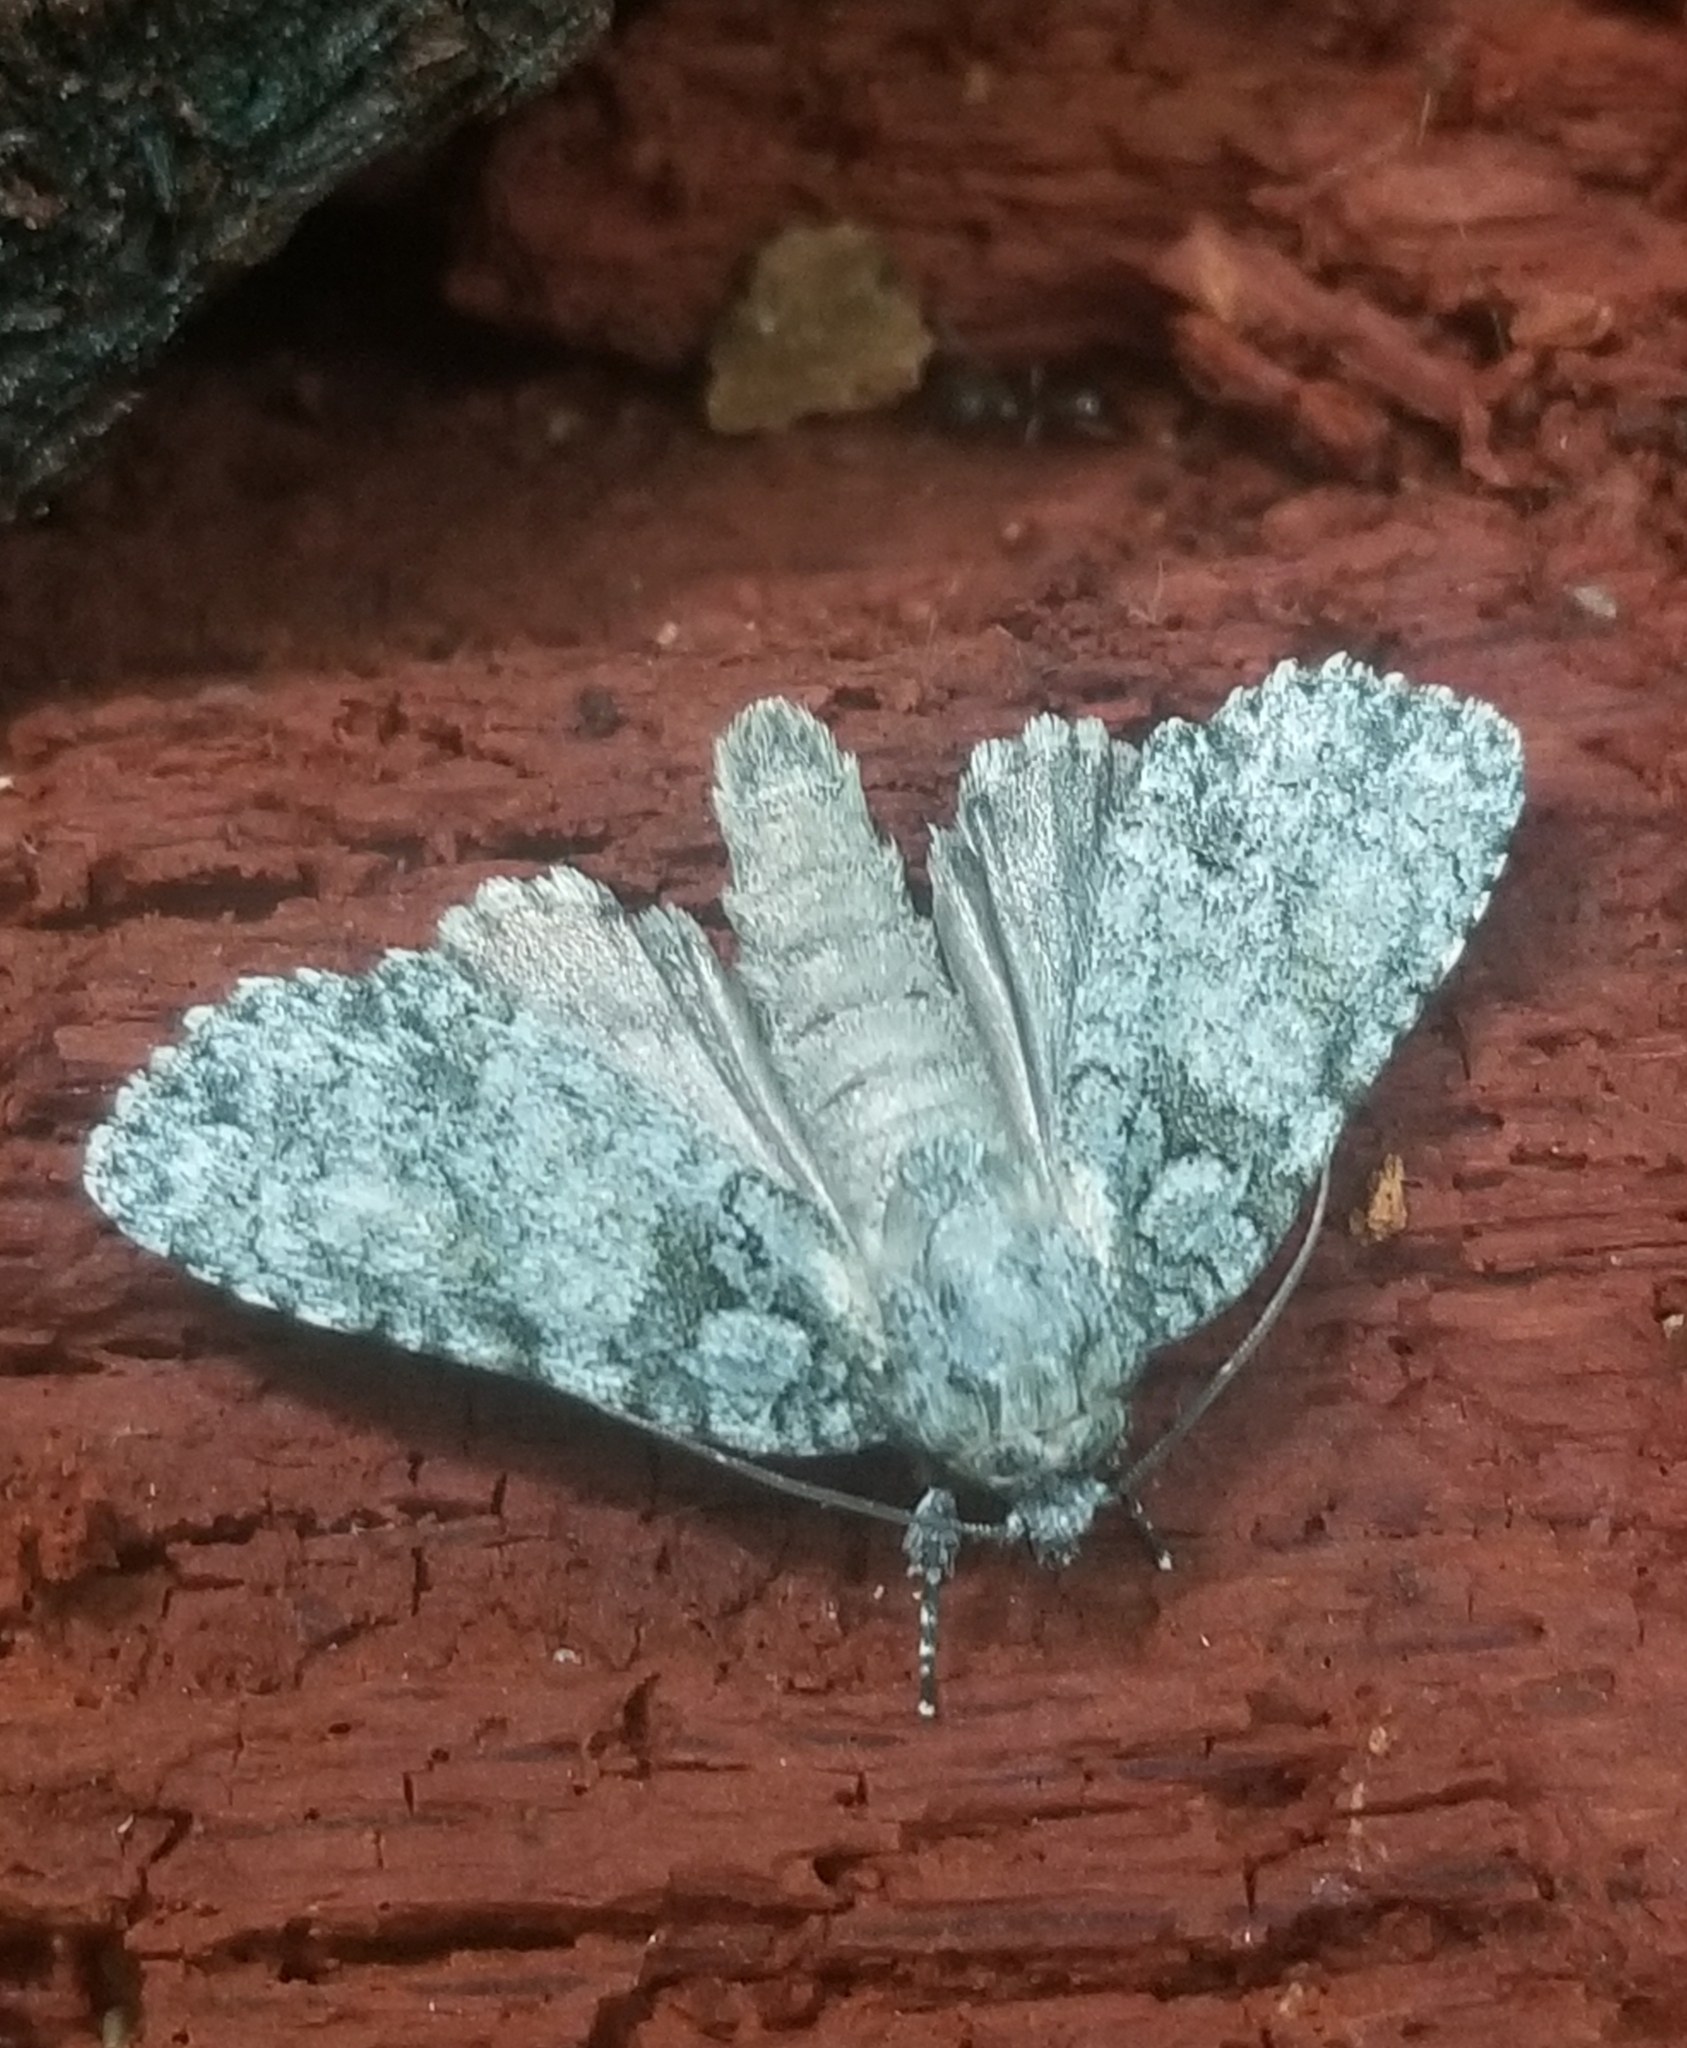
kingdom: Animalia
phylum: Arthropoda
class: Insecta
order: Lepidoptera
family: Noctuidae
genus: Acronicta
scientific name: Acronicta retardata
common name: Maple dagger
